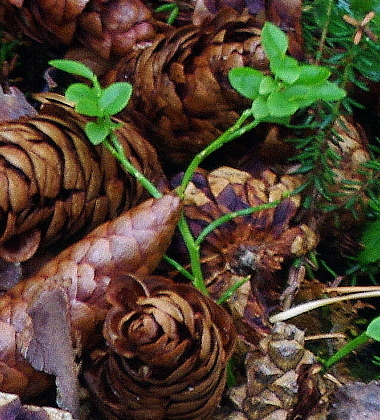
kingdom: Plantae
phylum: Tracheophyta
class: Magnoliopsida
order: Ericales
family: Ericaceae
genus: Vaccinium
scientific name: Vaccinium myrtillus
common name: Bilberry
